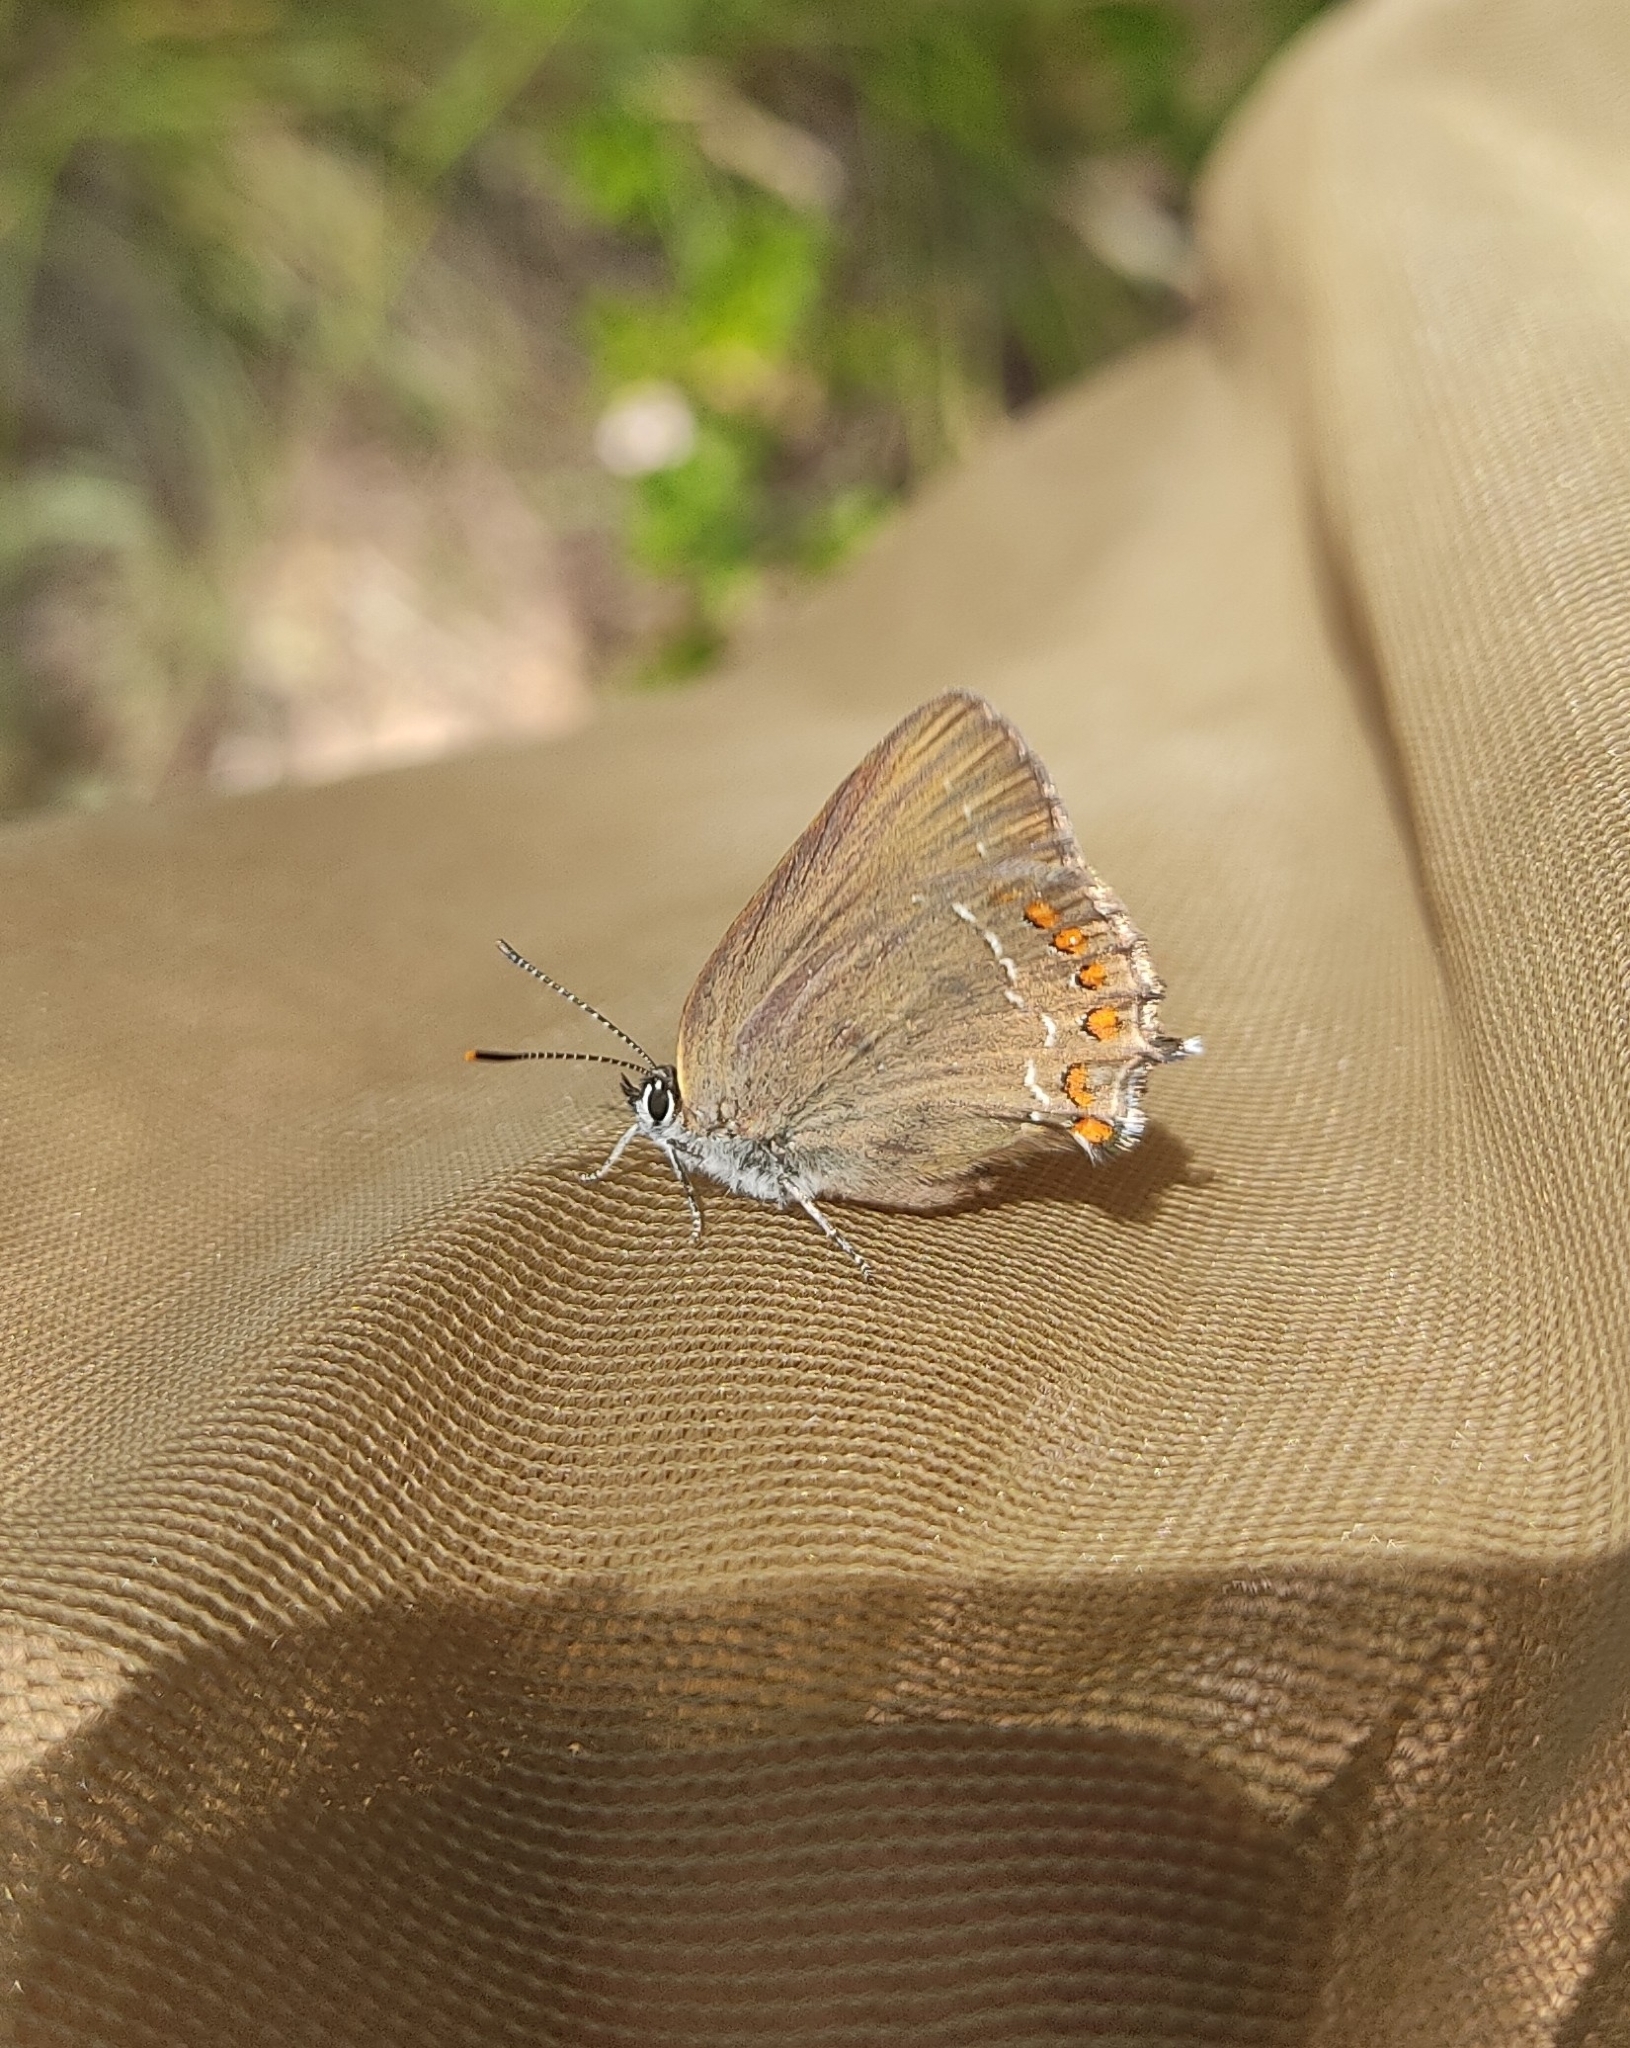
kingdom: Animalia
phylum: Arthropoda
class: Insecta
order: Lepidoptera
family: Lycaenidae
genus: Fixsenia
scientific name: Fixsenia esculi
